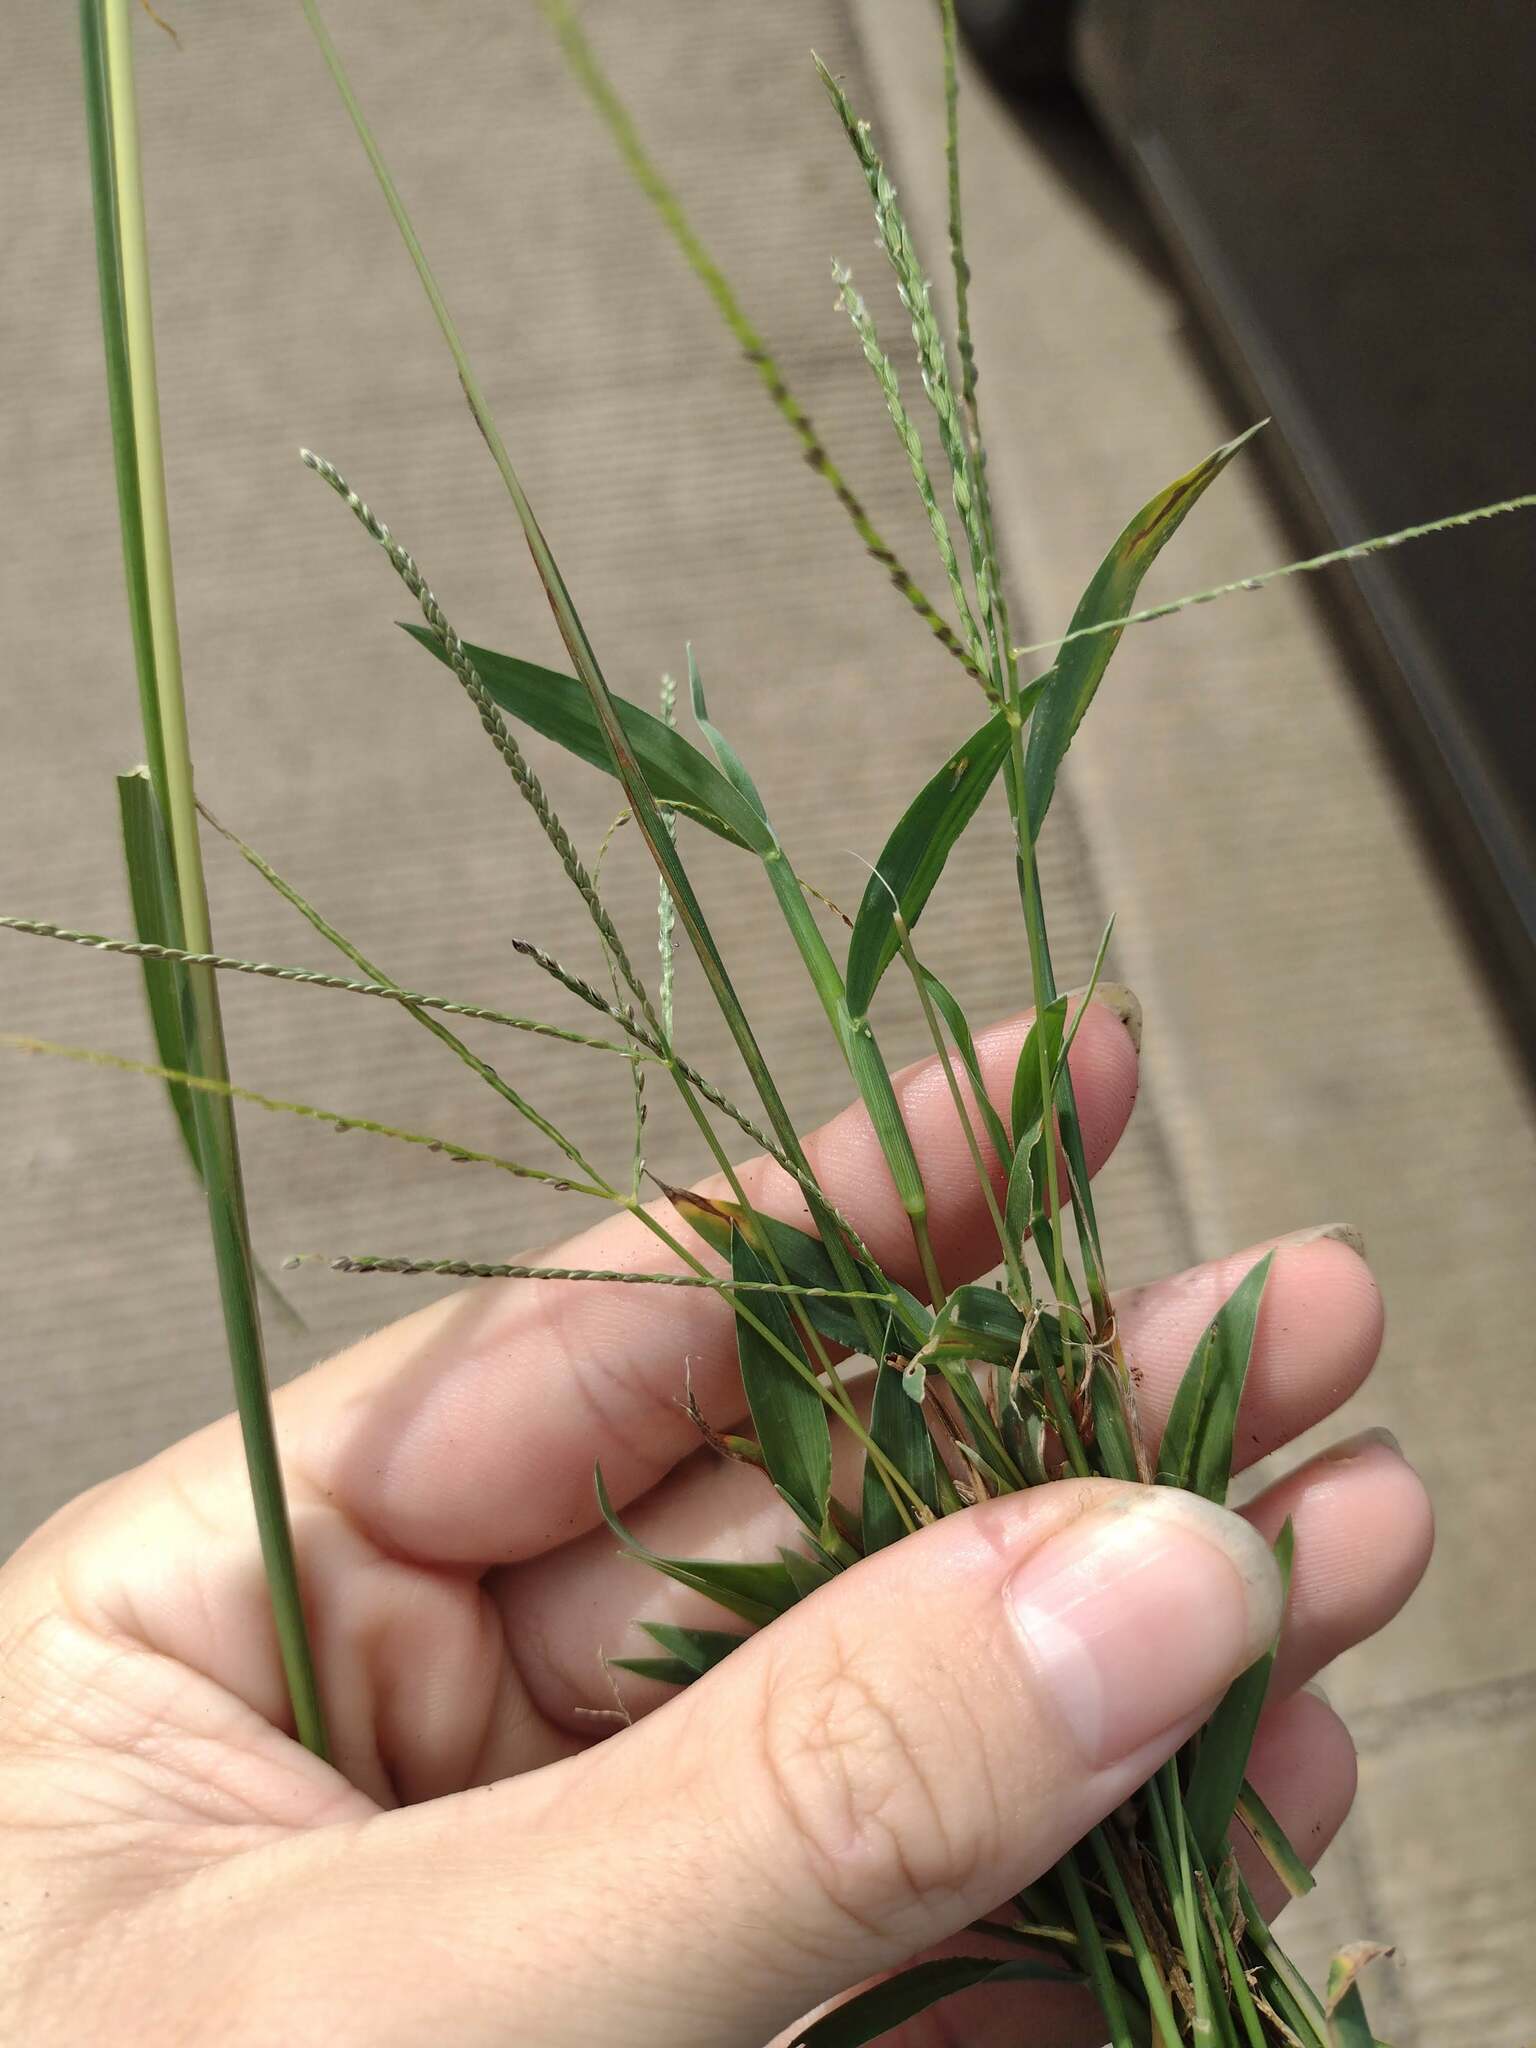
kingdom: Plantae
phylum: Tracheophyta
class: Liliopsida
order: Poales
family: Poaceae
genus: Digitaria
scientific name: Digitaria violascens
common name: Violet crabgrass
